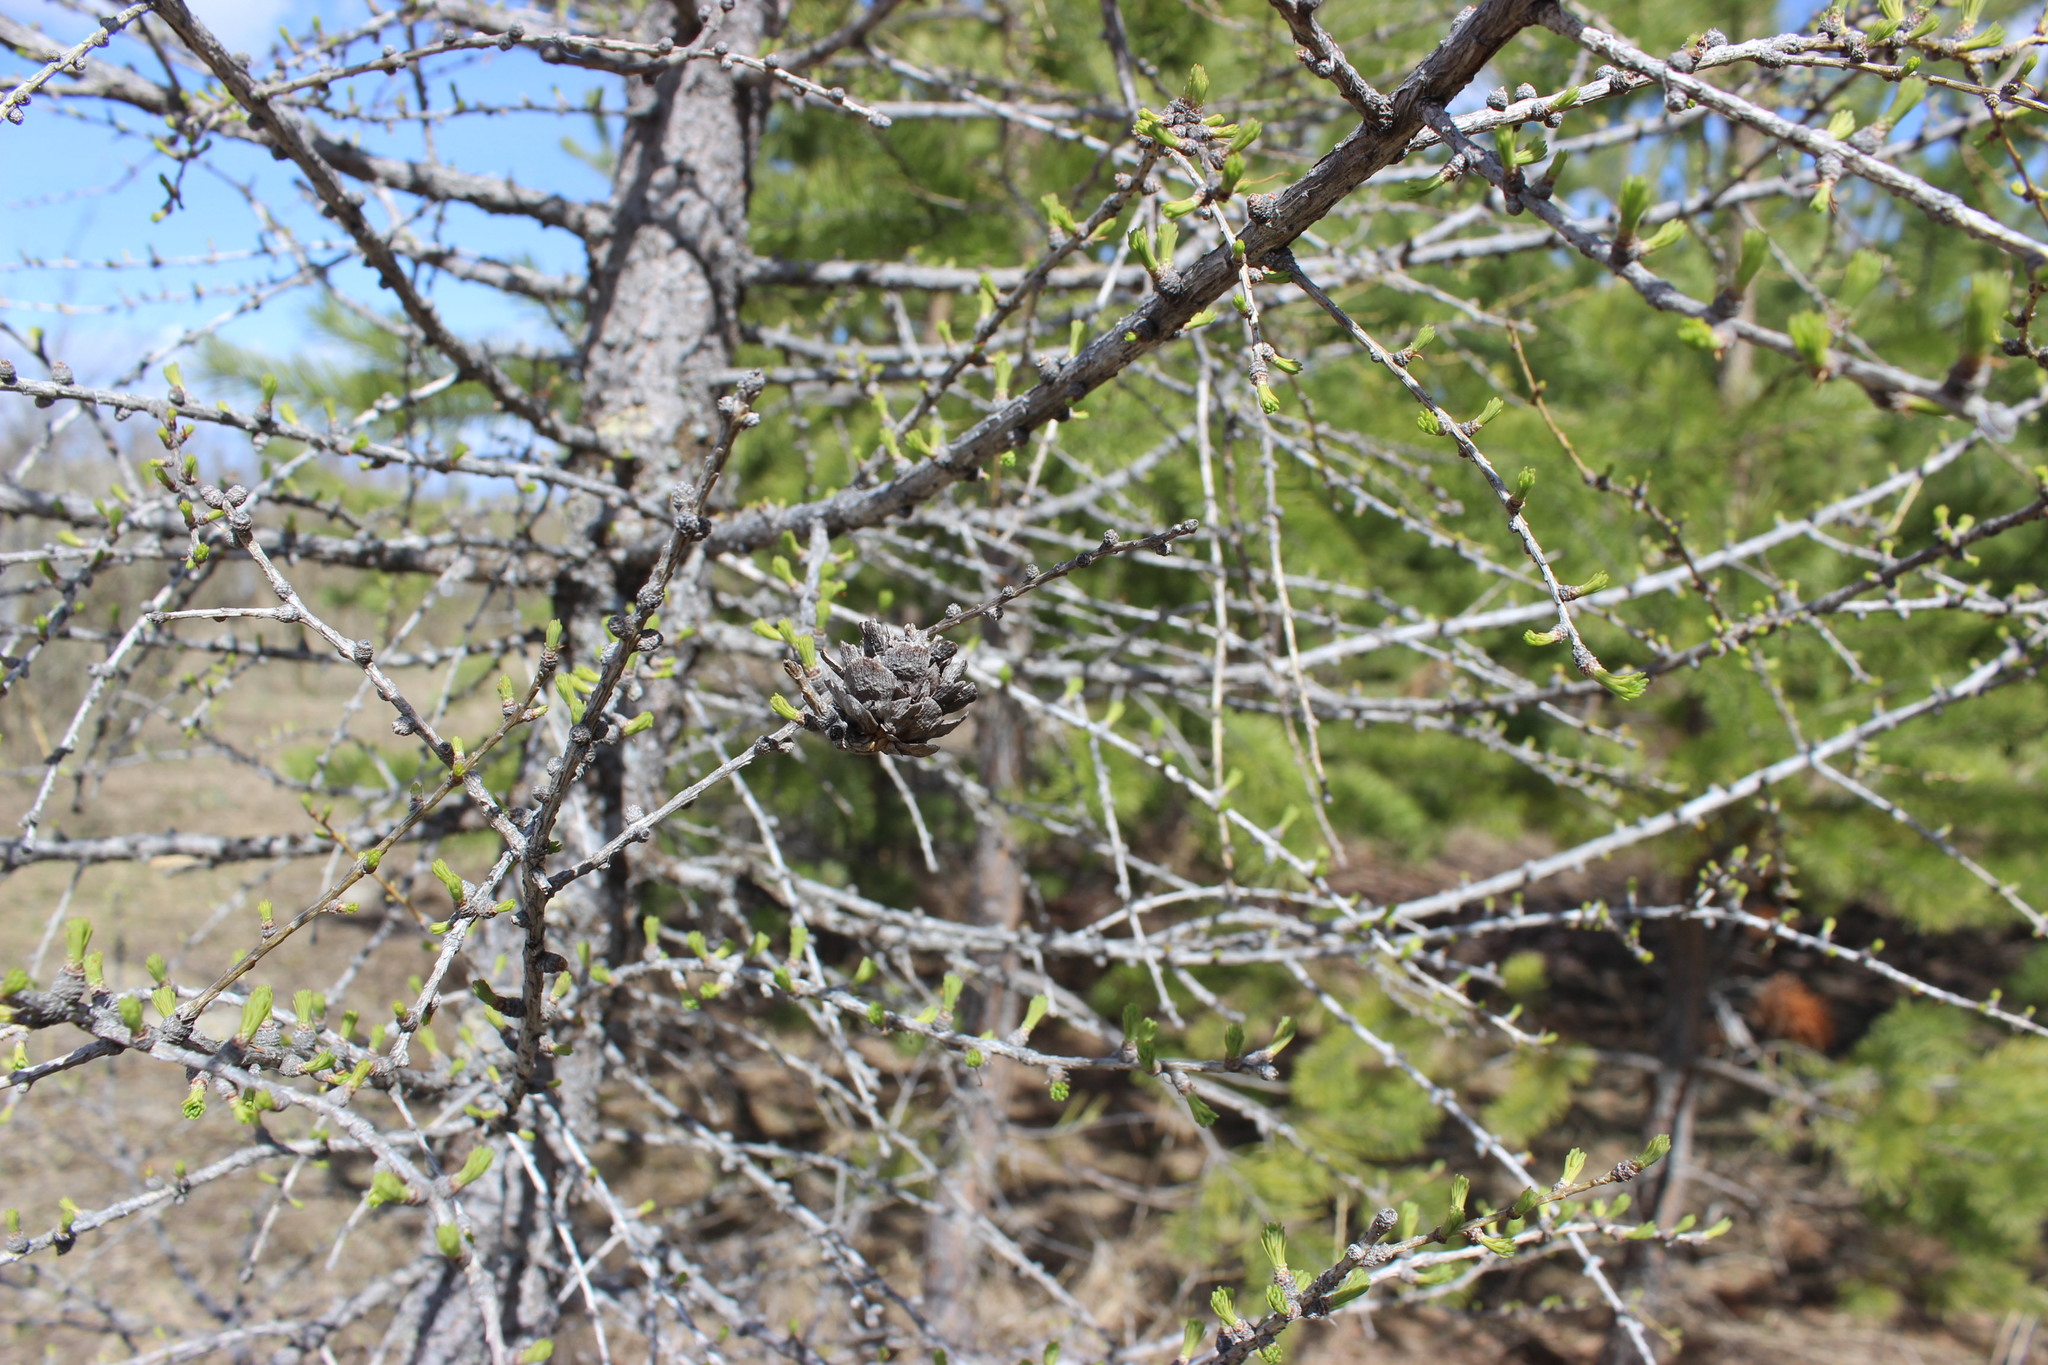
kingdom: Plantae
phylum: Tracheophyta
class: Pinopsida
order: Pinales
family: Pinaceae
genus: Larix
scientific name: Larix sibirica
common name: Siberian larch
